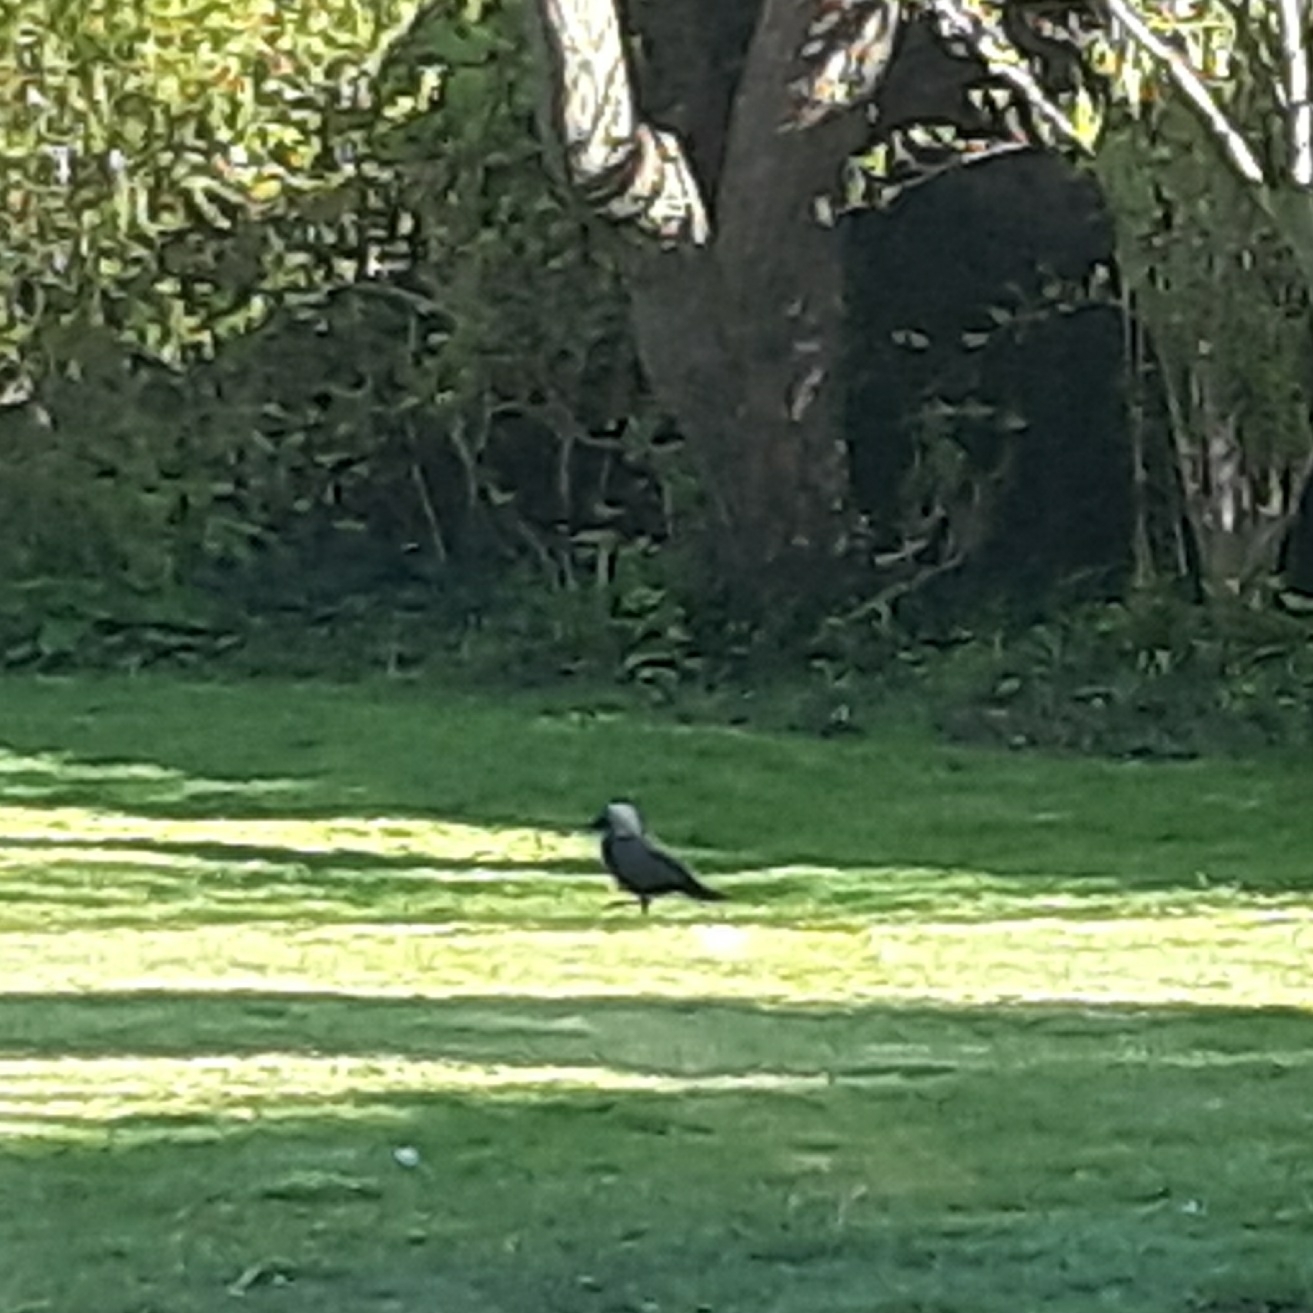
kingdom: Animalia
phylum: Chordata
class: Aves
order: Passeriformes
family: Corvidae
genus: Coloeus
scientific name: Coloeus monedula
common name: Western jackdaw
